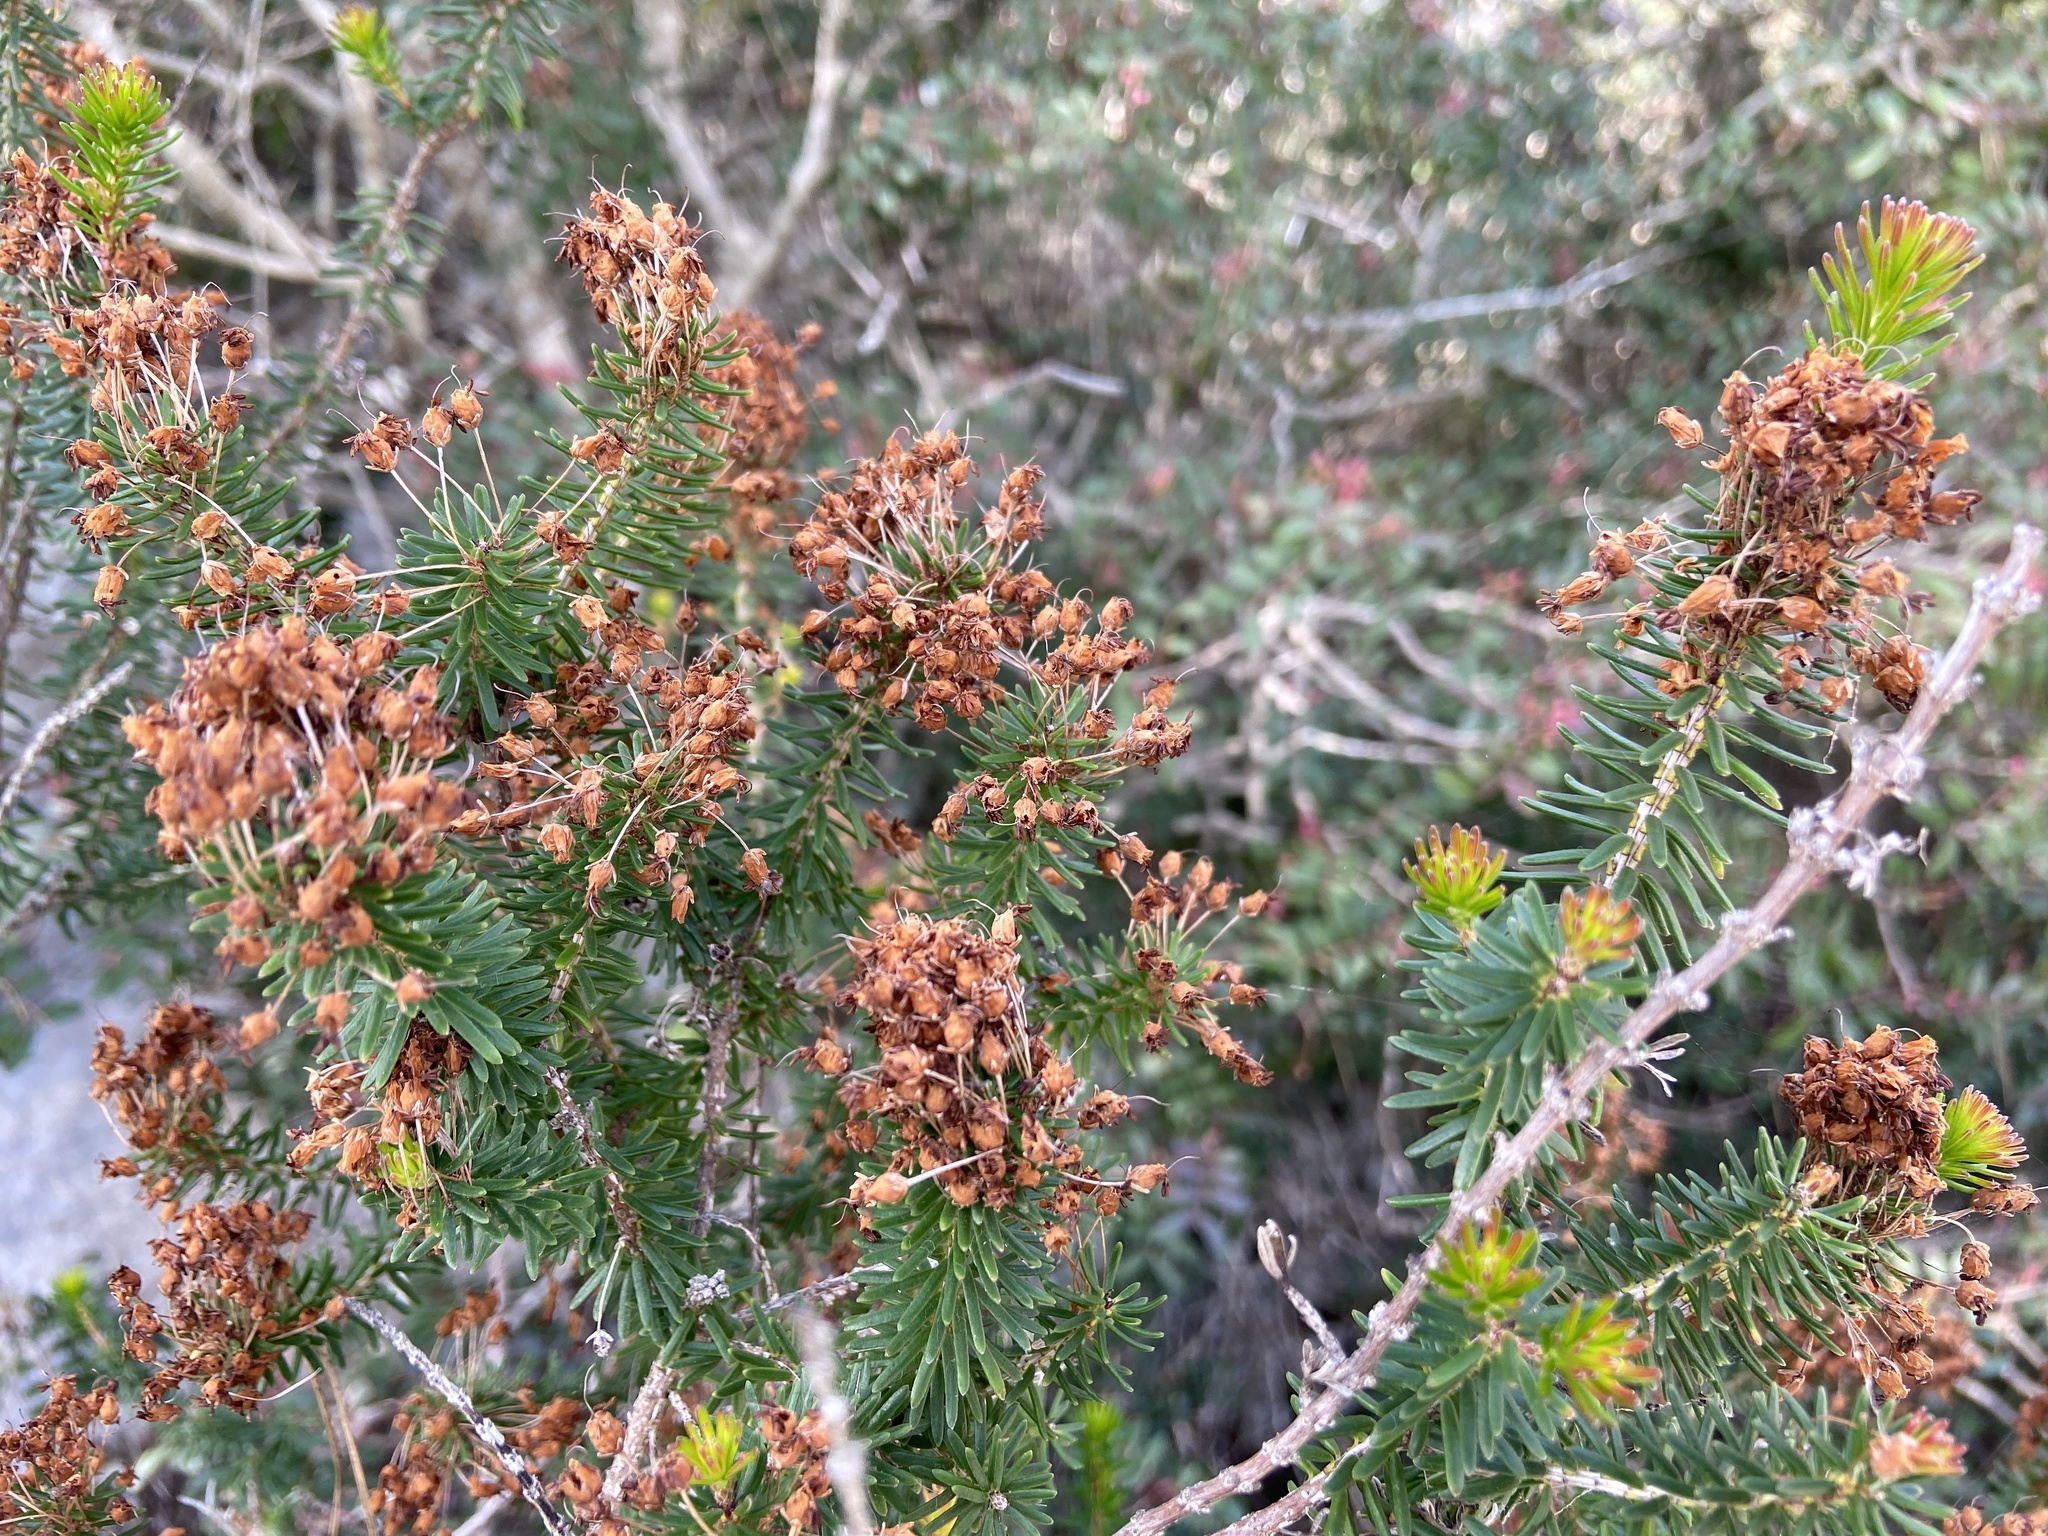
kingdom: Plantae
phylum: Tracheophyta
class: Magnoliopsida
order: Ericales
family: Ericaceae
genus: Erica
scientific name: Erica multiflora
